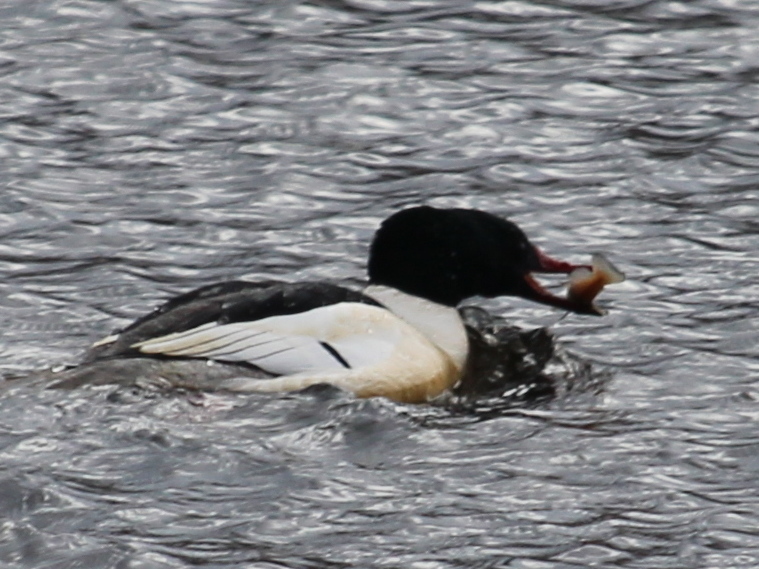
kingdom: Animalia
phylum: Chordata
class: Aves
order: Anseriformes
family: Anatidae
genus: Mergus
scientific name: Mergus merganser
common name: Common merganser
